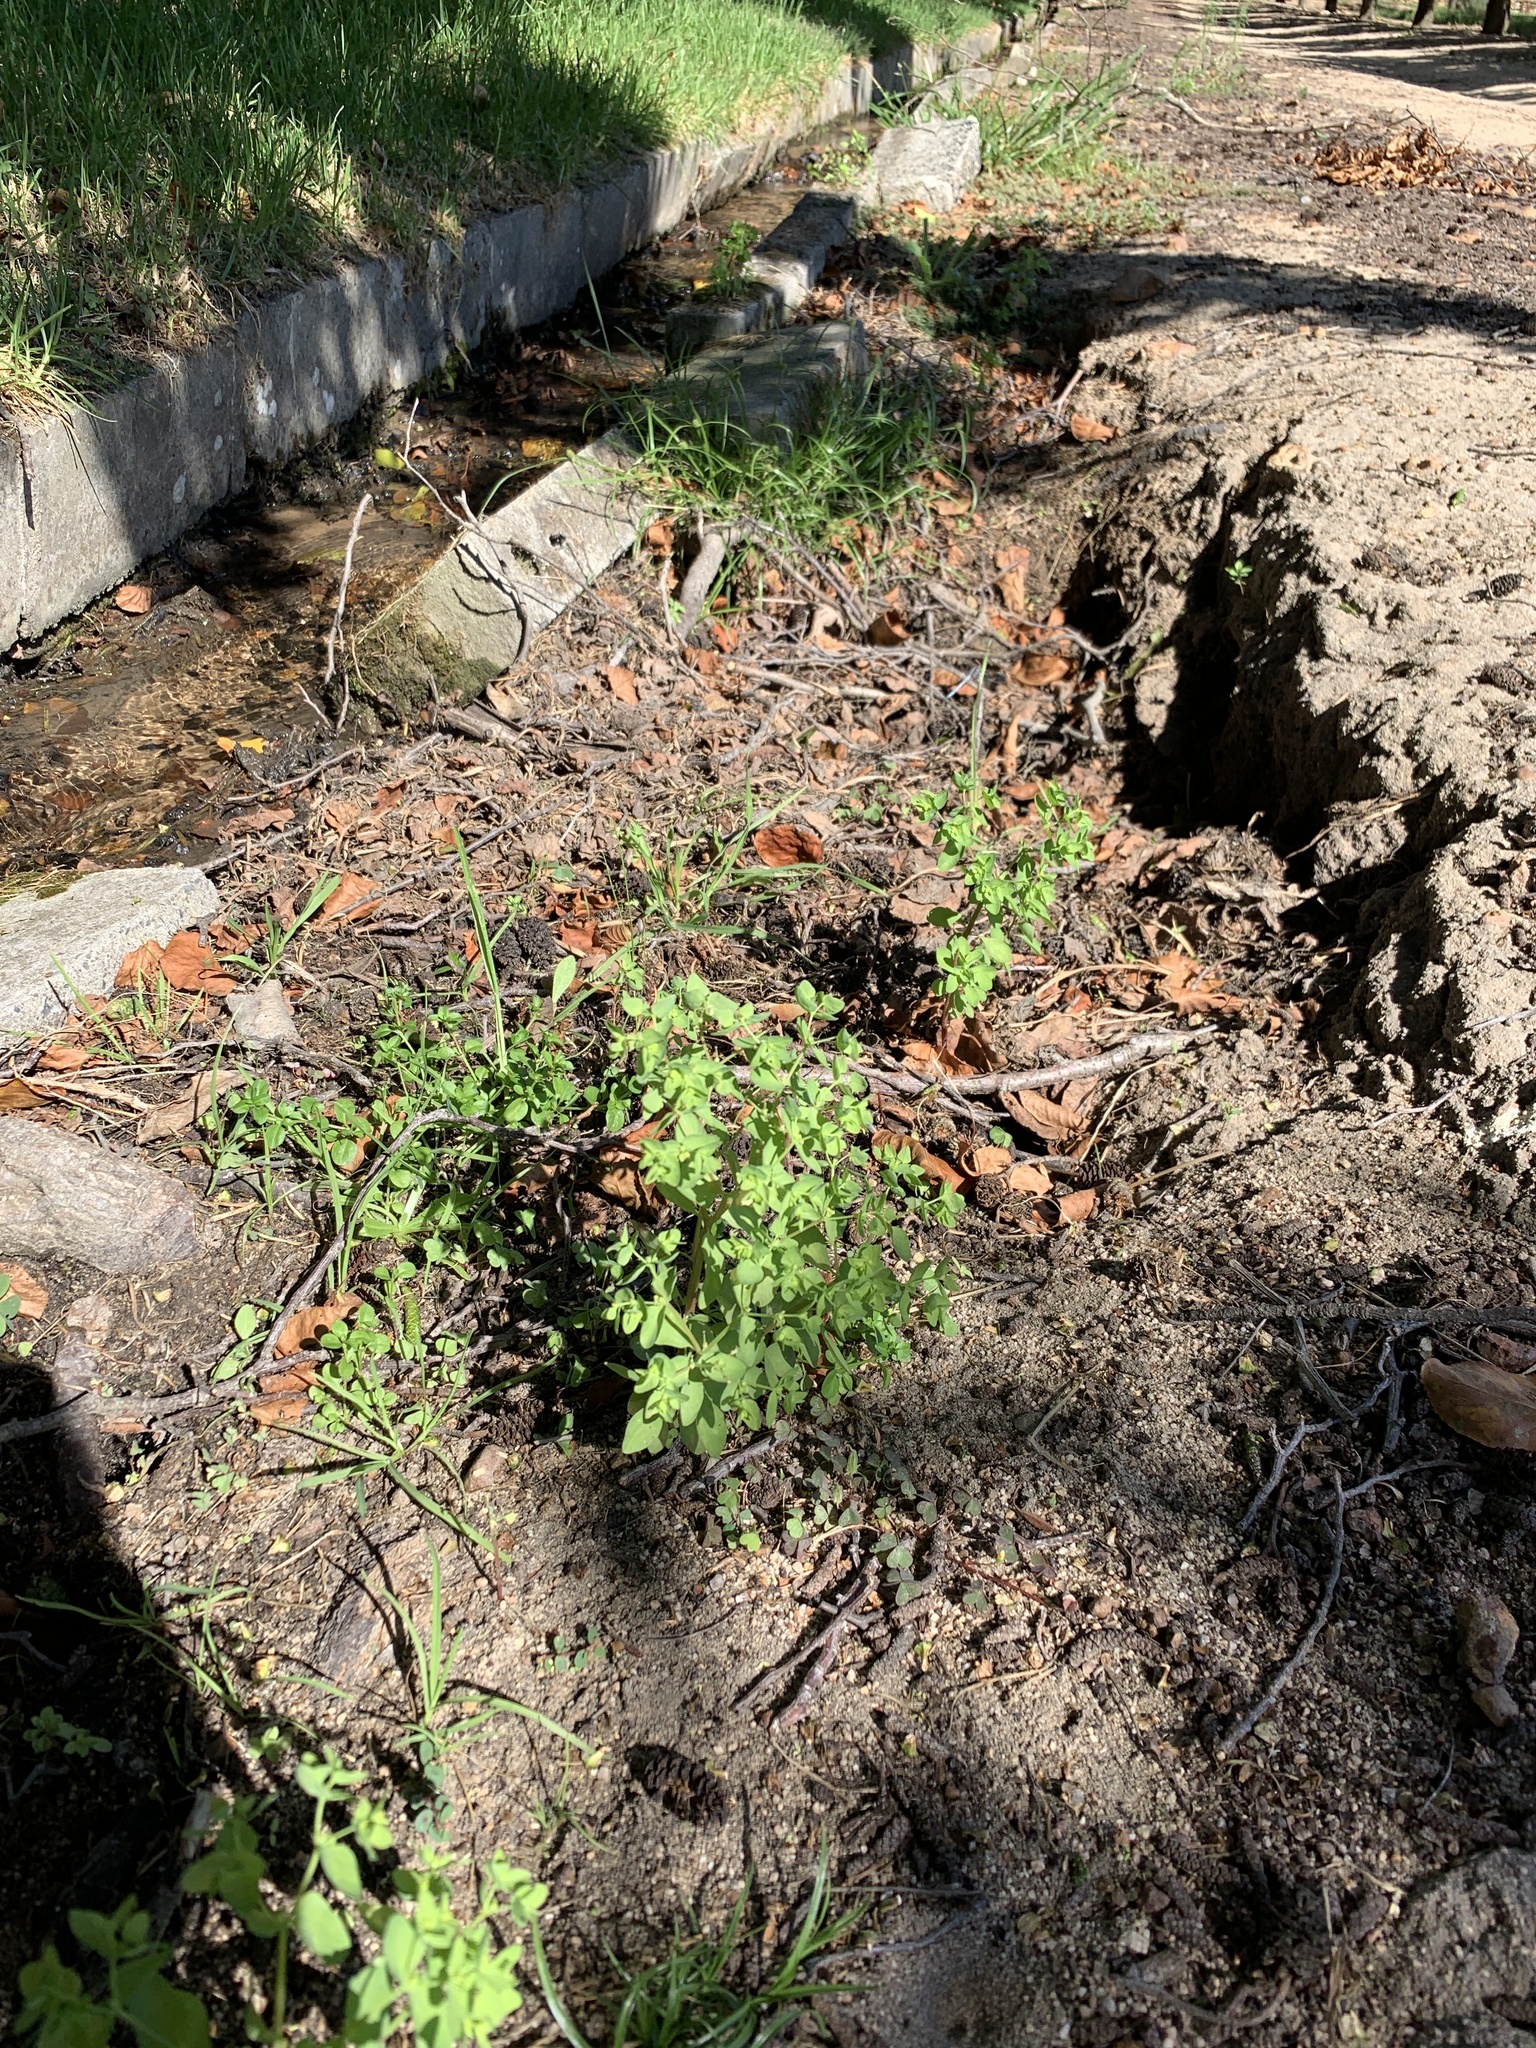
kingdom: Plantae
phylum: Tracheophyta
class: Magnoliopsida
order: Malpighiales
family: Euphorbiaceae
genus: Euphorbia
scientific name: Euphorbia peplus
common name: Petty spurge
